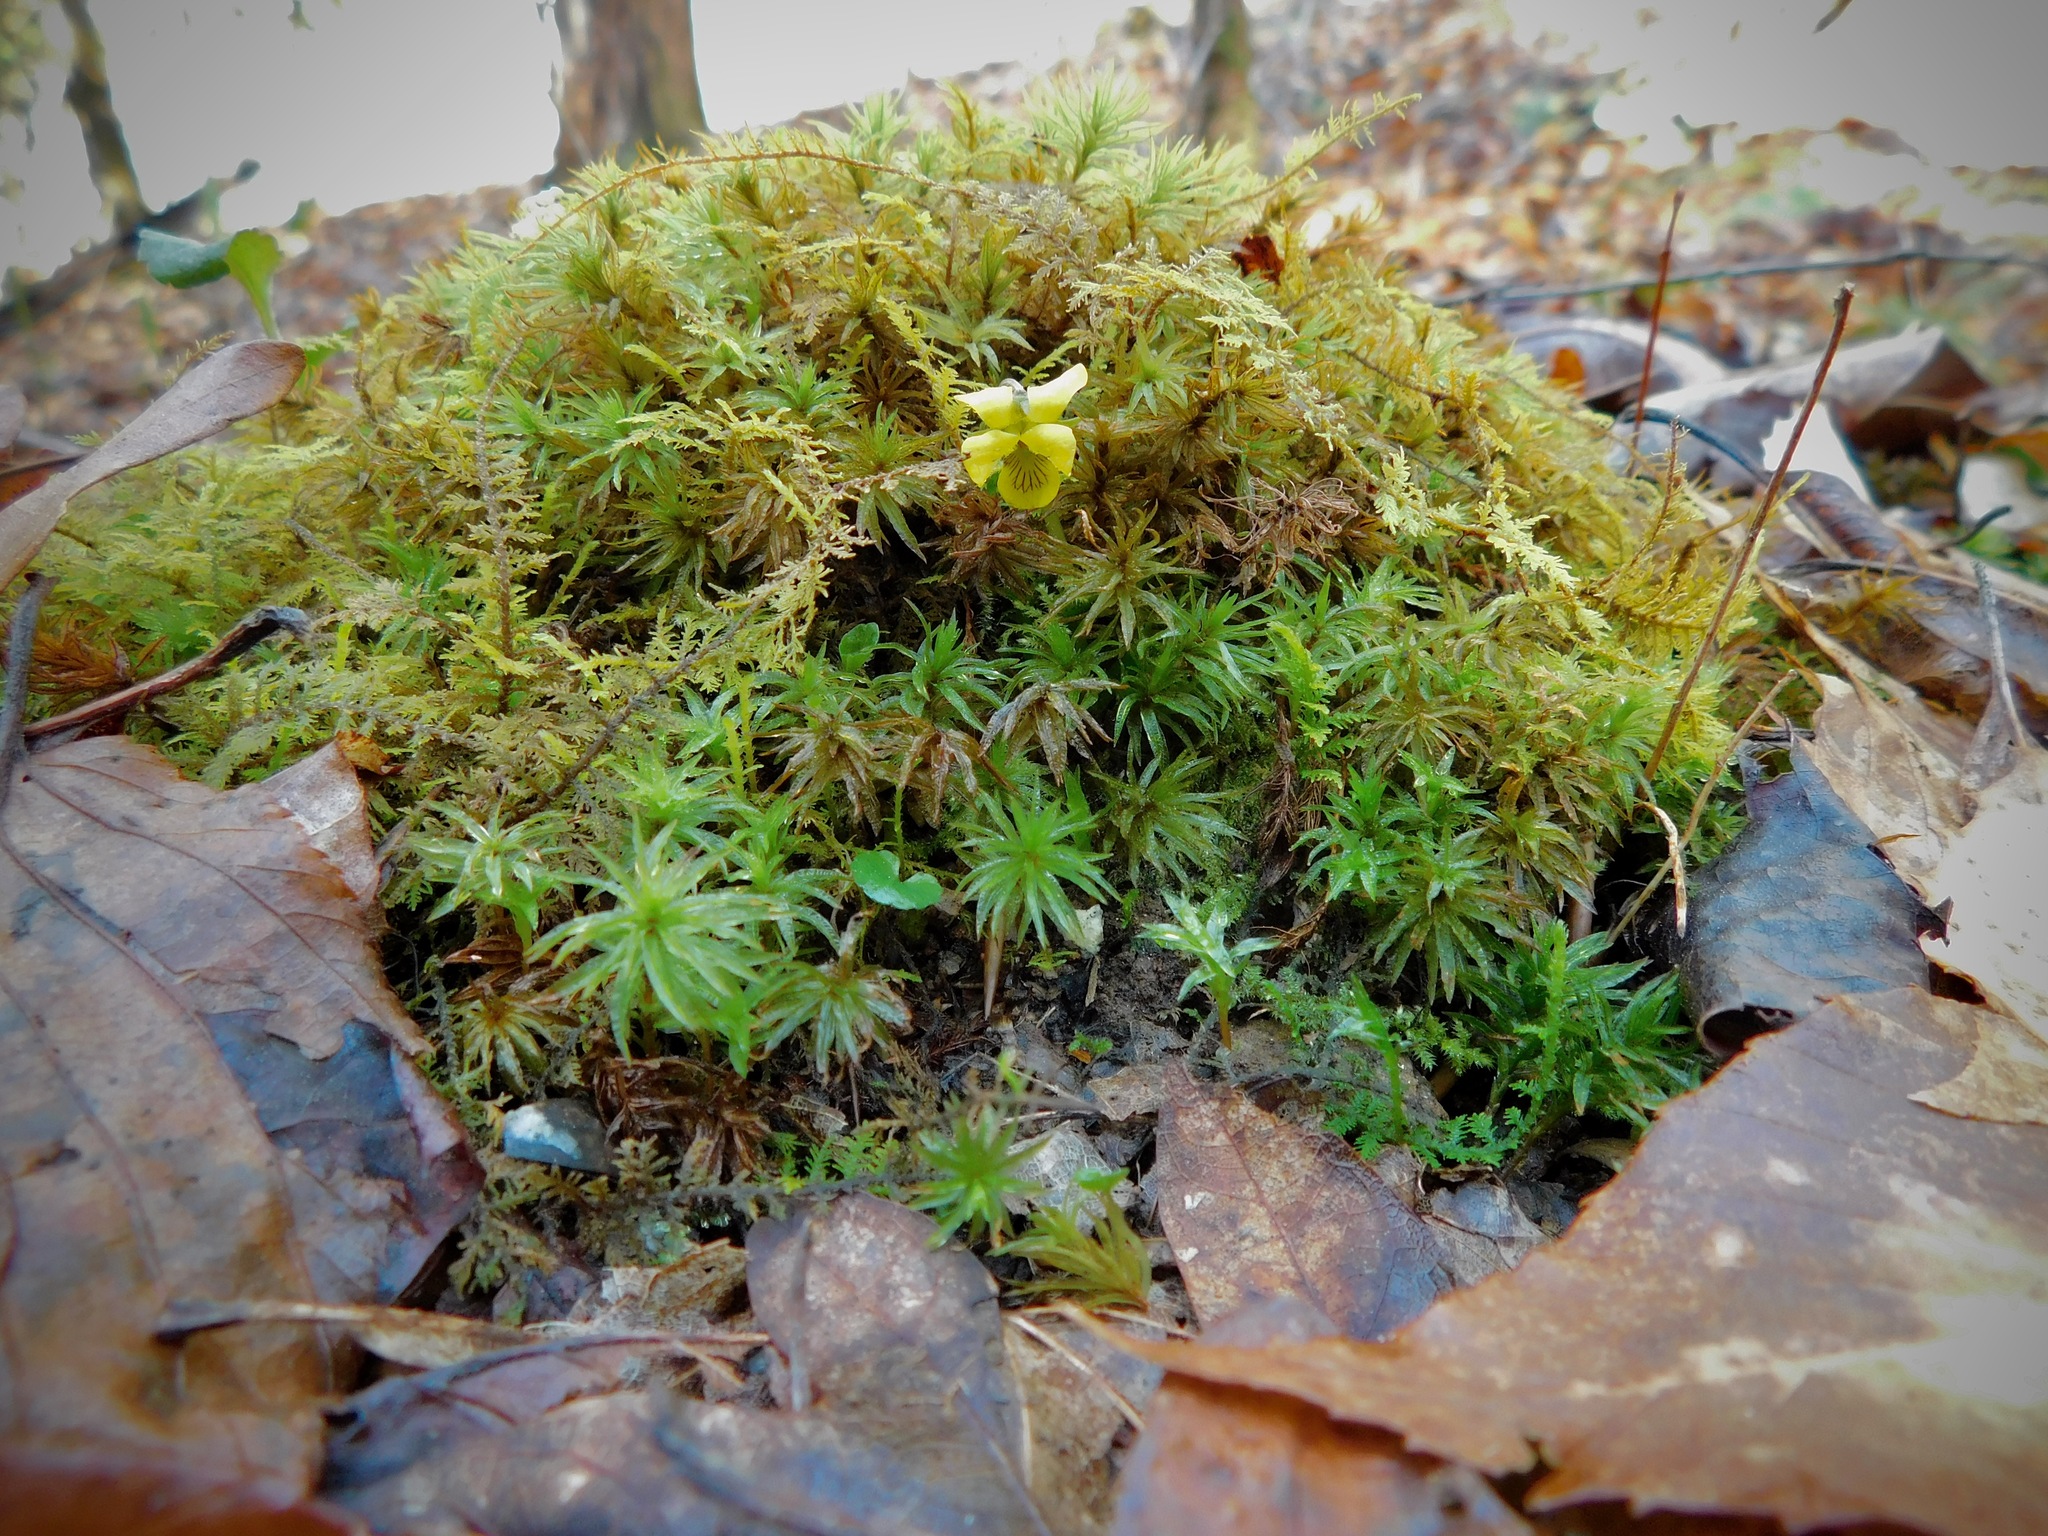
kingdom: Plantae
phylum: Tracheophyta
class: Magnoliopsida
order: Malpighiales
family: Violaceae
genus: Viola
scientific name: Viola rotundifolia
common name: Early yellow violet
